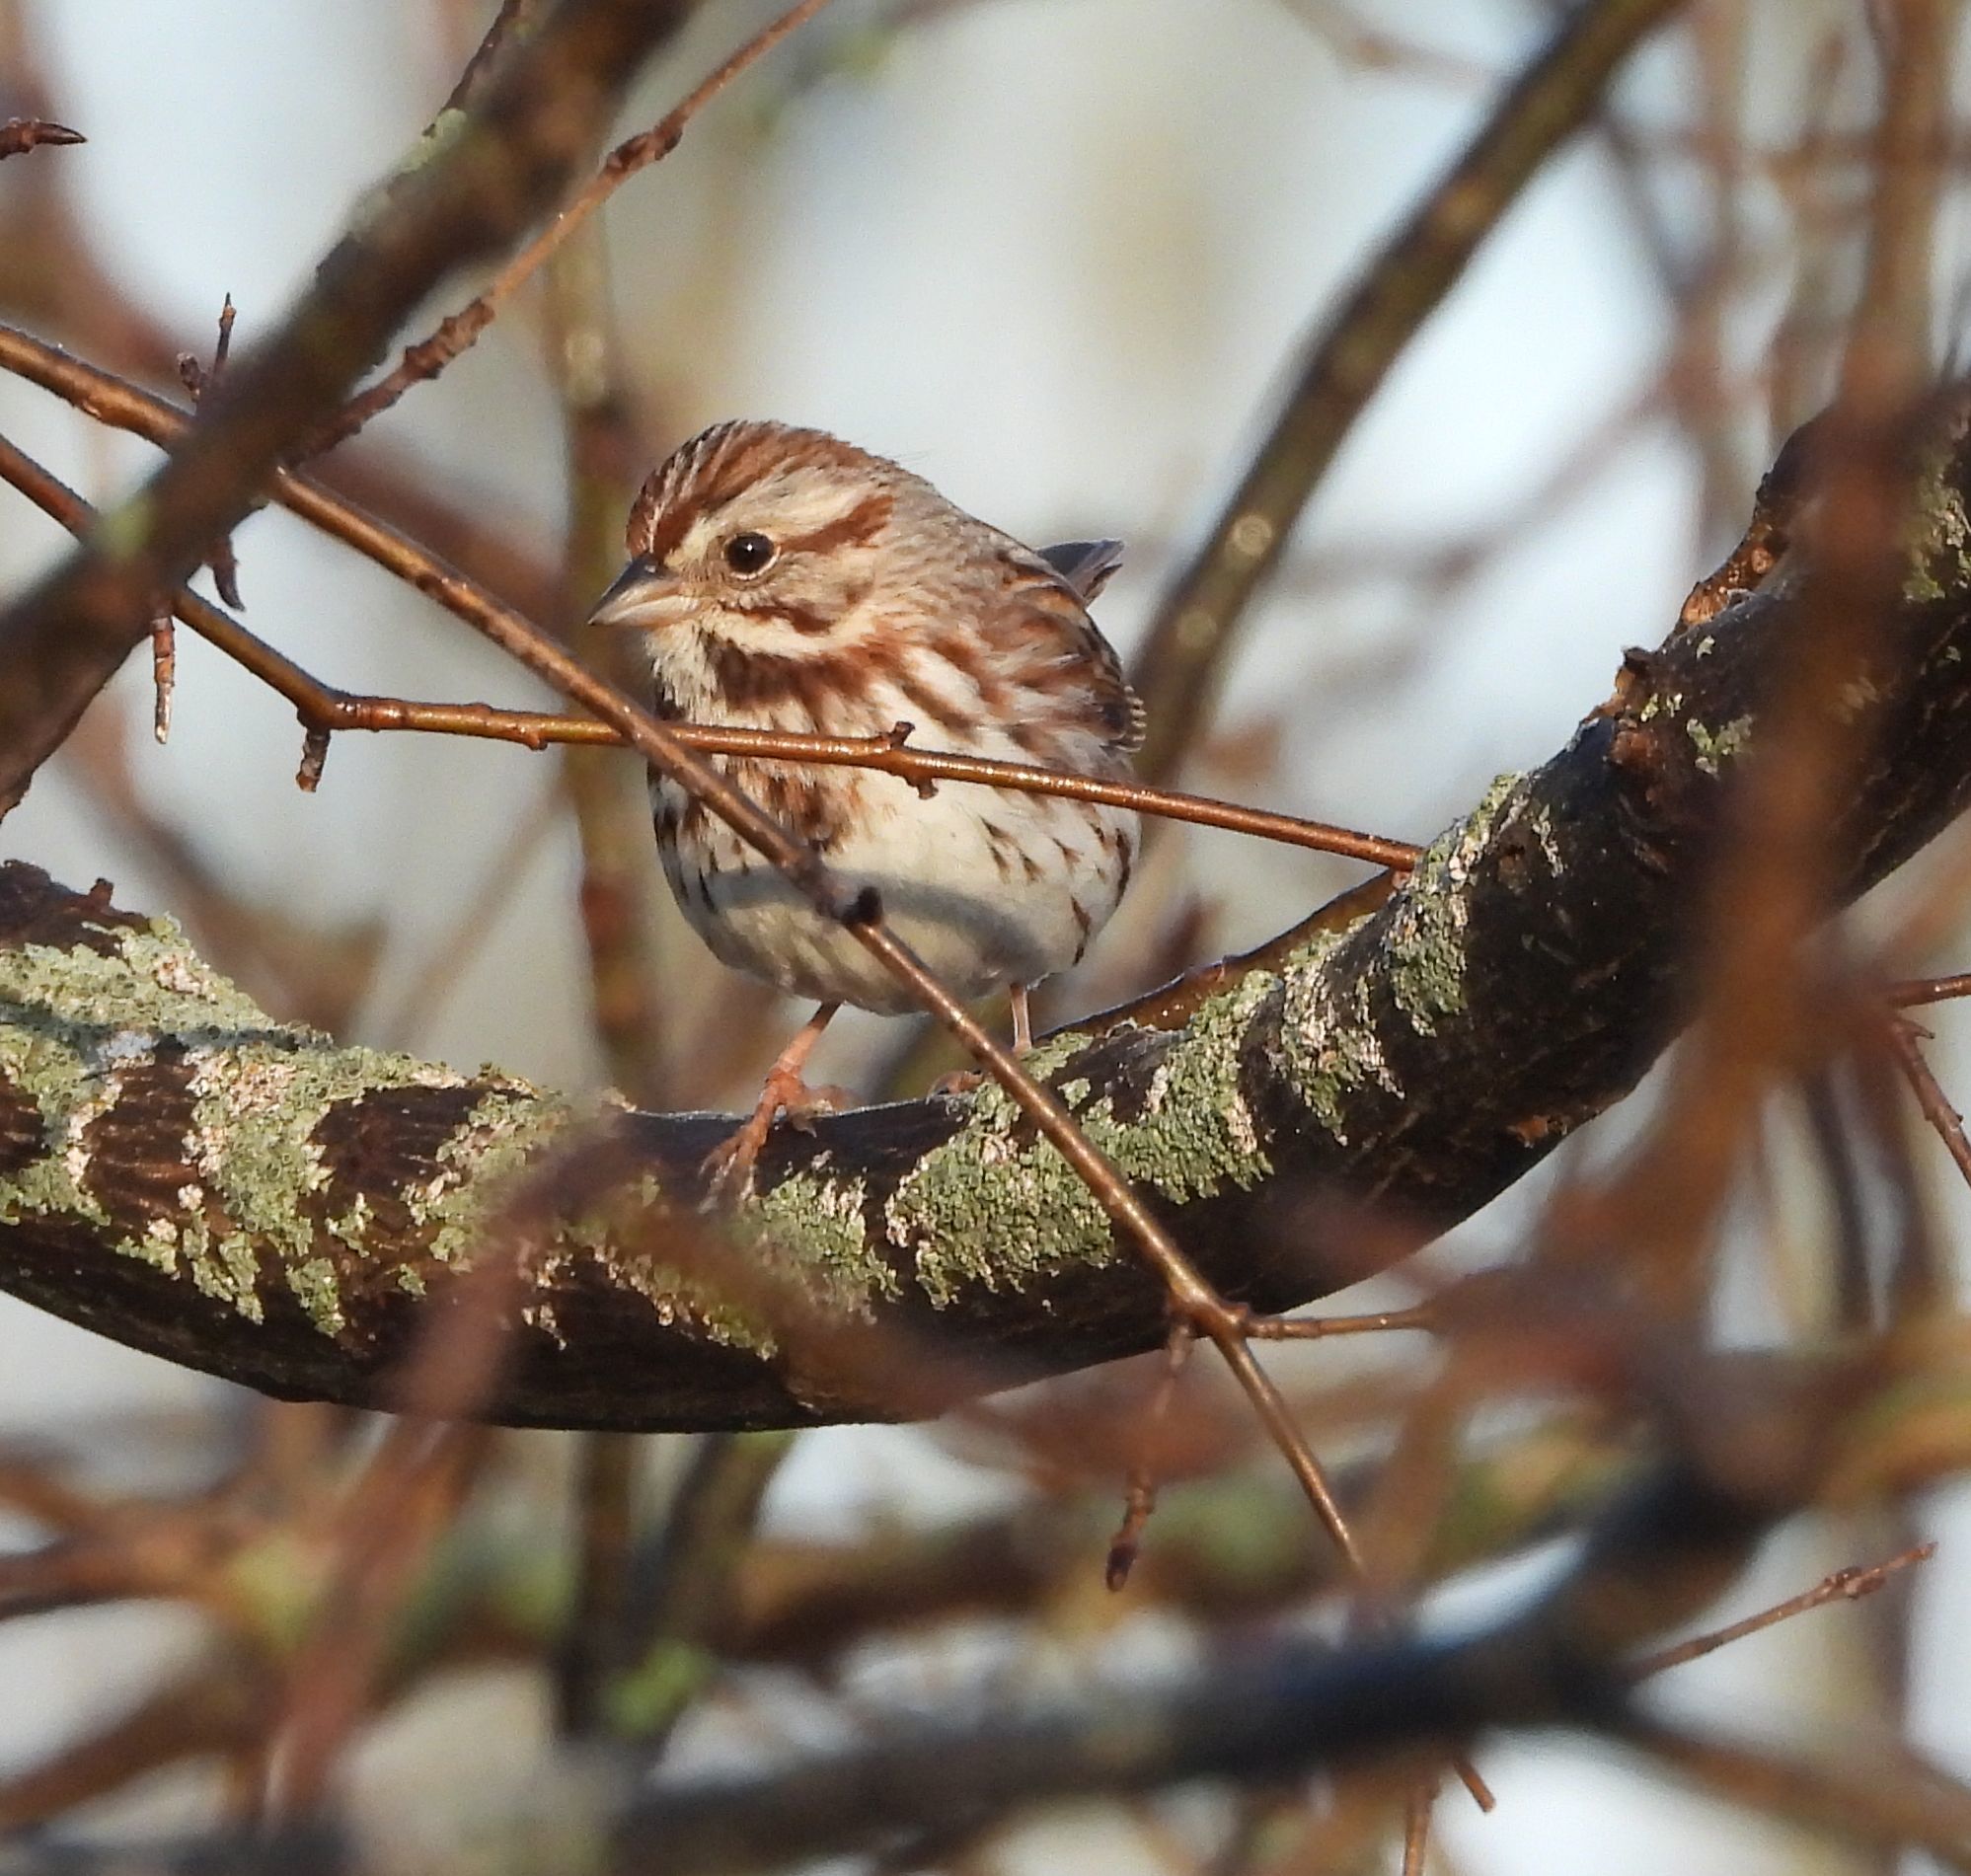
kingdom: Animalia
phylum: Chordata
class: Aves
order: Passeriformes
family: Passerellidae
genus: Melospiza
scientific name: Melospiza melodia
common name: Song sparrow
